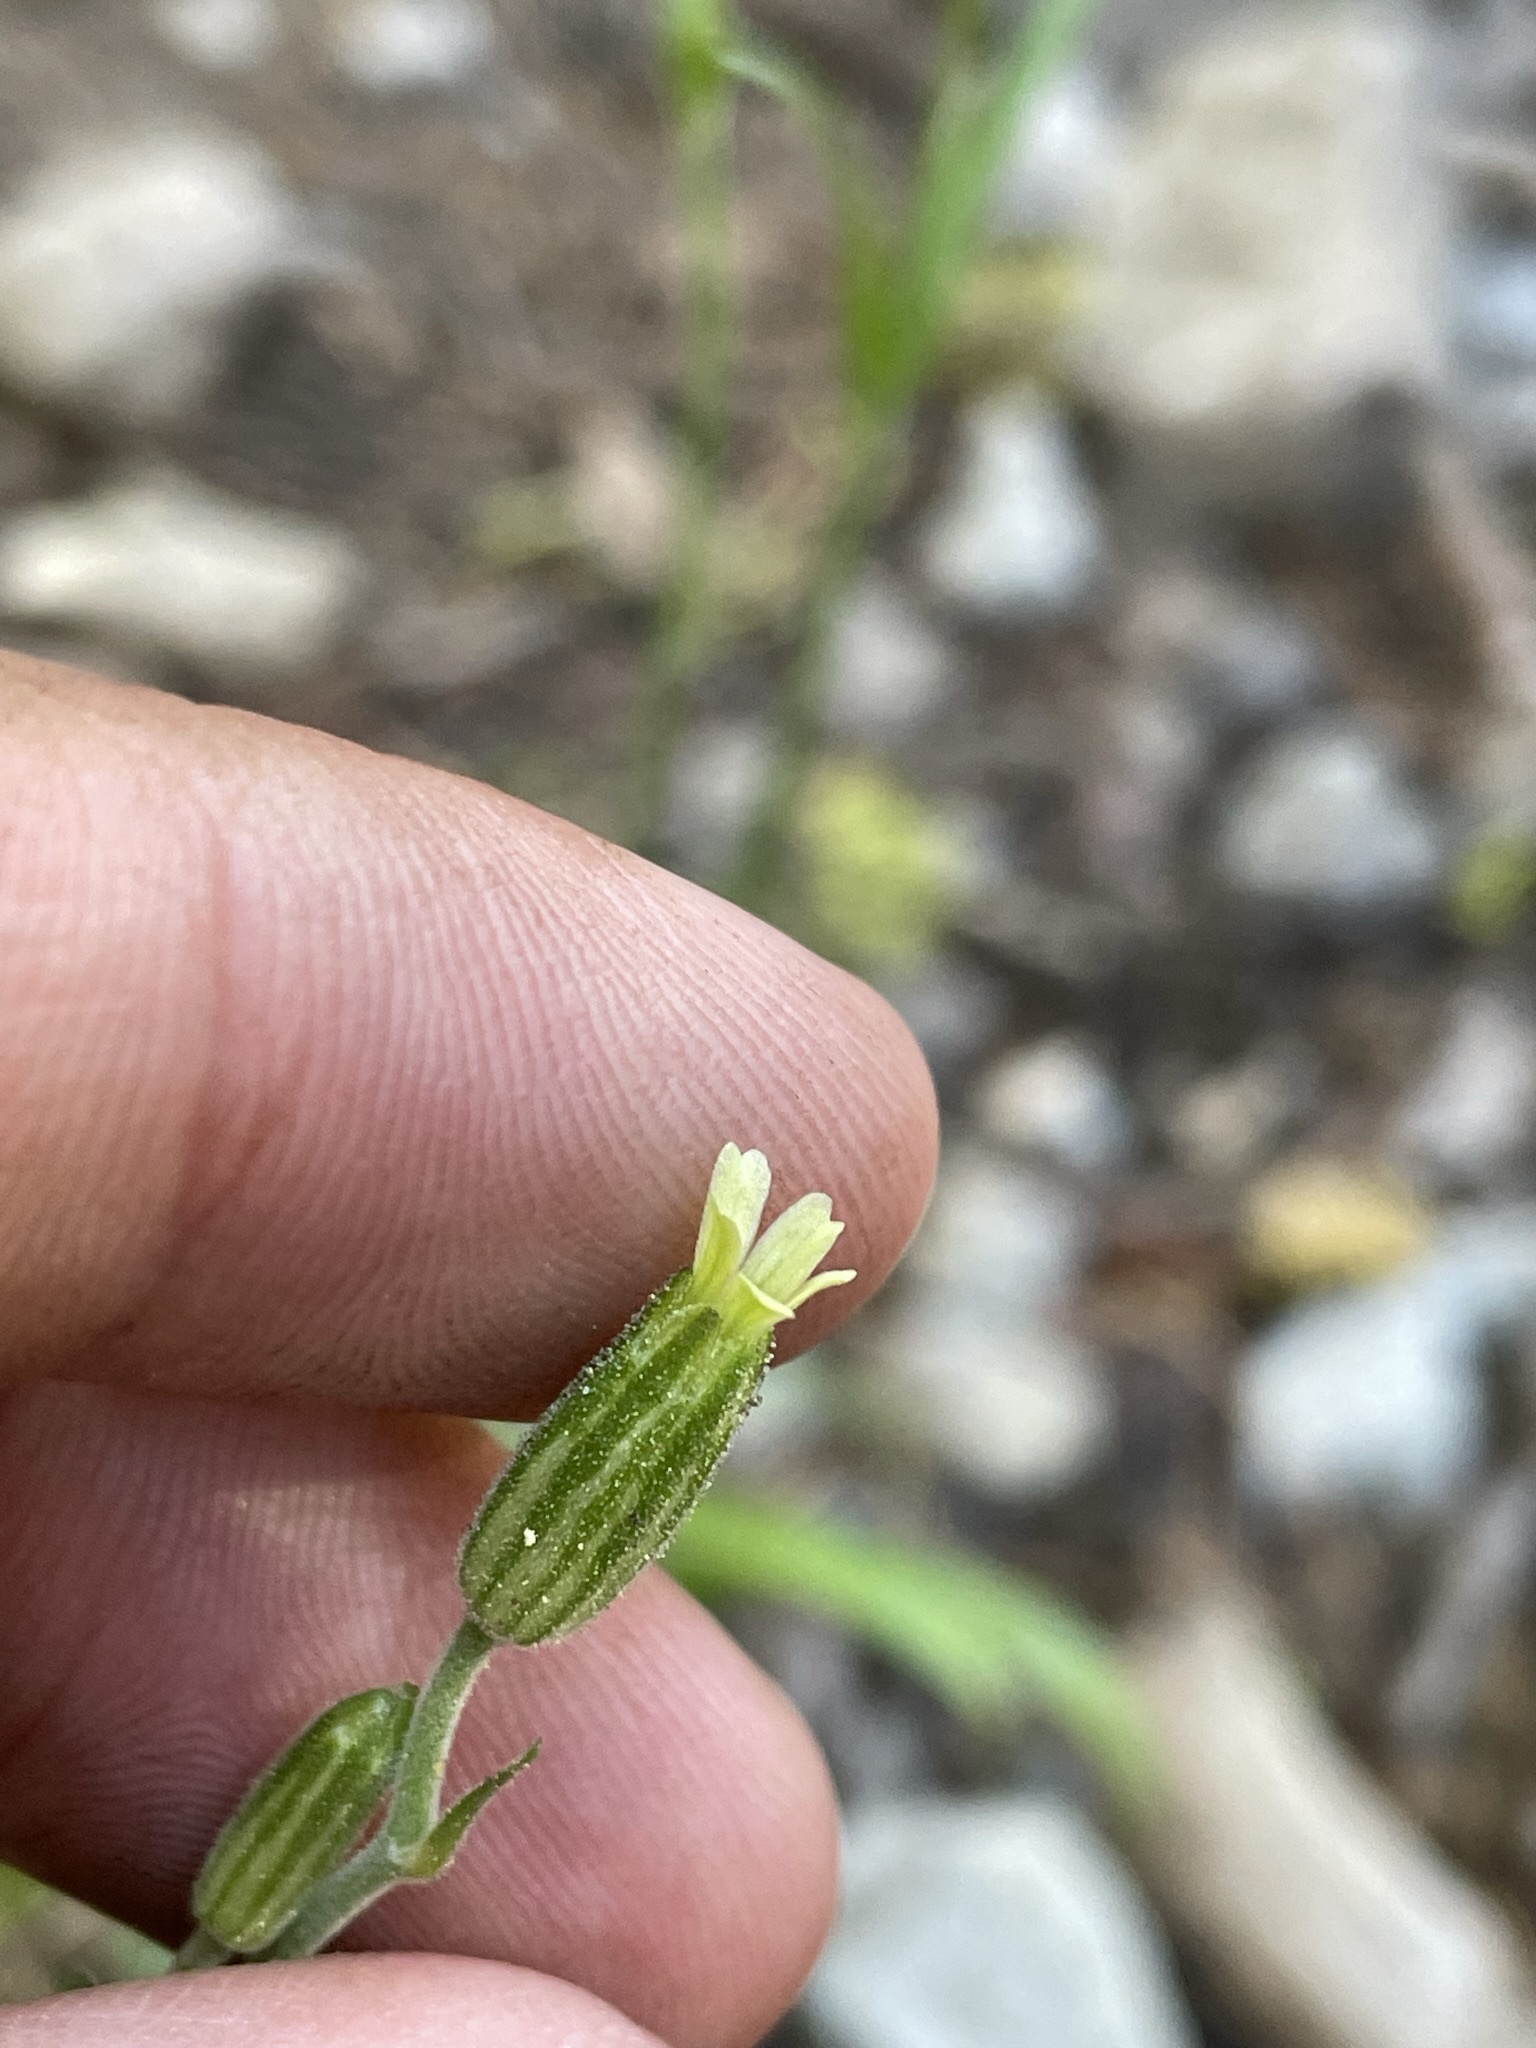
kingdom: Plantae
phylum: Tracheophyta
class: Magnoliopsida
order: Caryophyllales
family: Caryophyllaceae
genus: Silene
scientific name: Silene invisa
